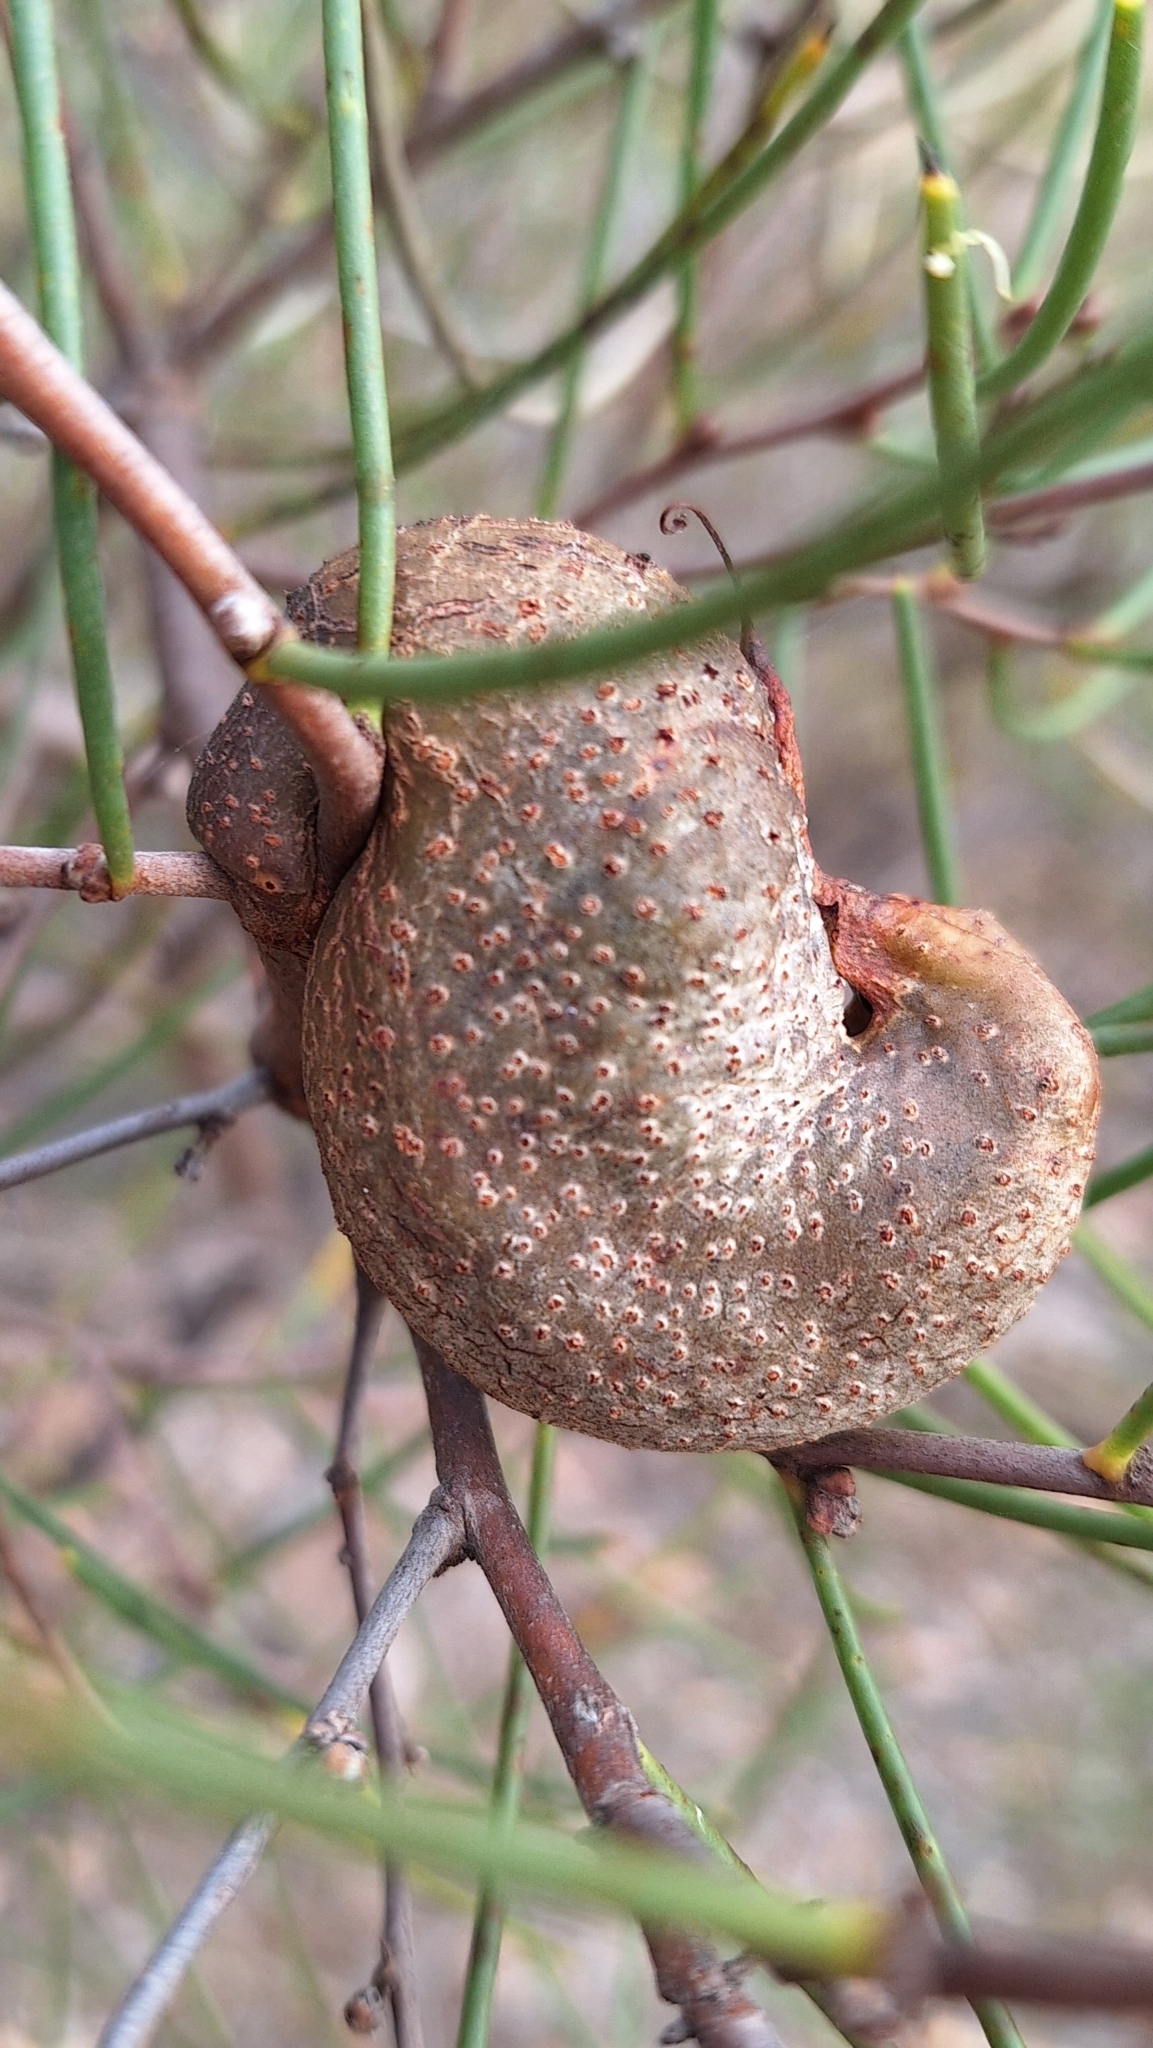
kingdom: Plantae
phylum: Tracheophyta
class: Magnoliopsida
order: Proteales
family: Proteaceae
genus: Hakea
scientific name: Hakea rostrata
